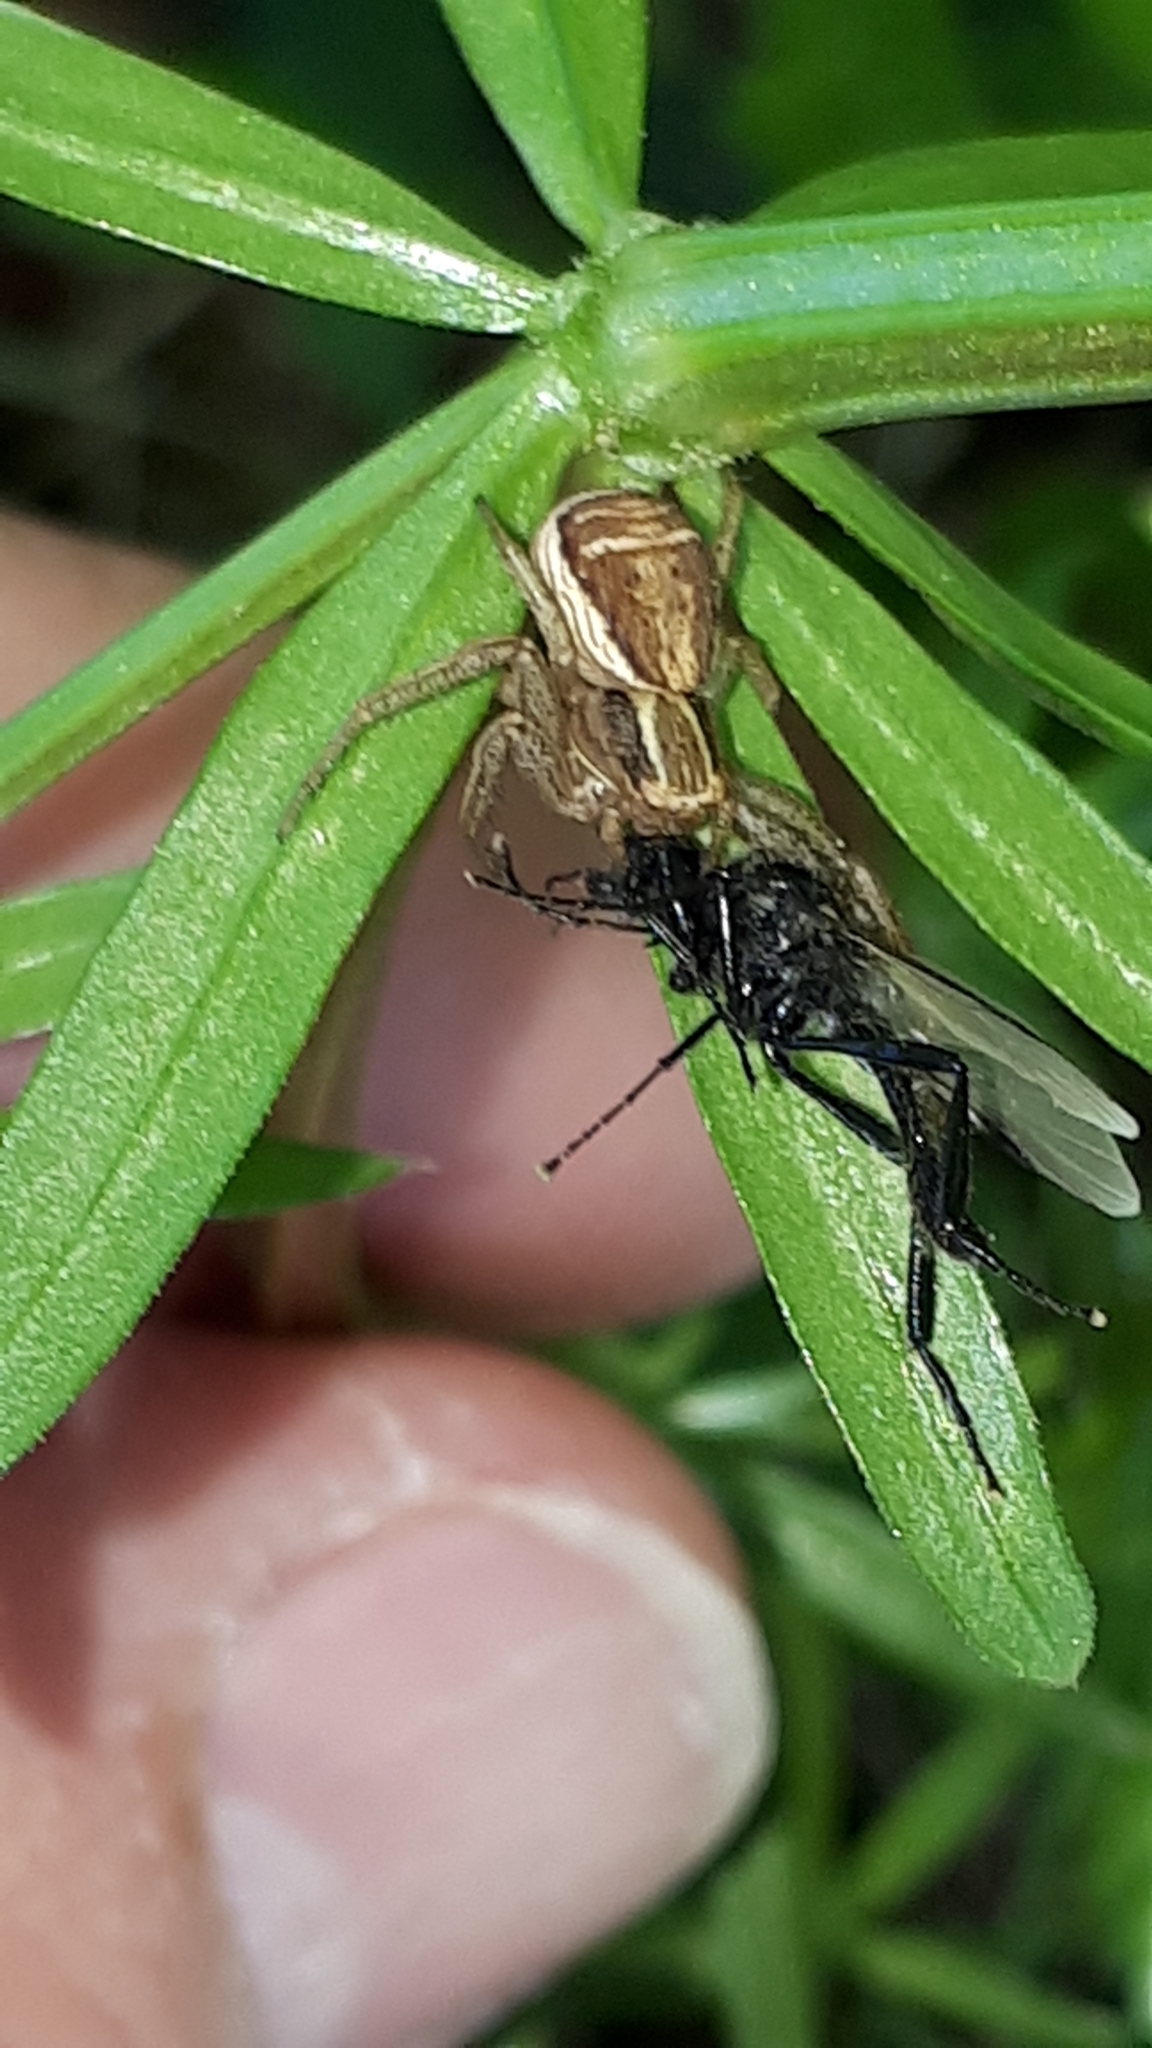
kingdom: Animalia
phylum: Arthropoda
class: Arachnida
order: Araneae
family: Thomisidae
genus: Xysticus
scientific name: Xysticus ulmi
